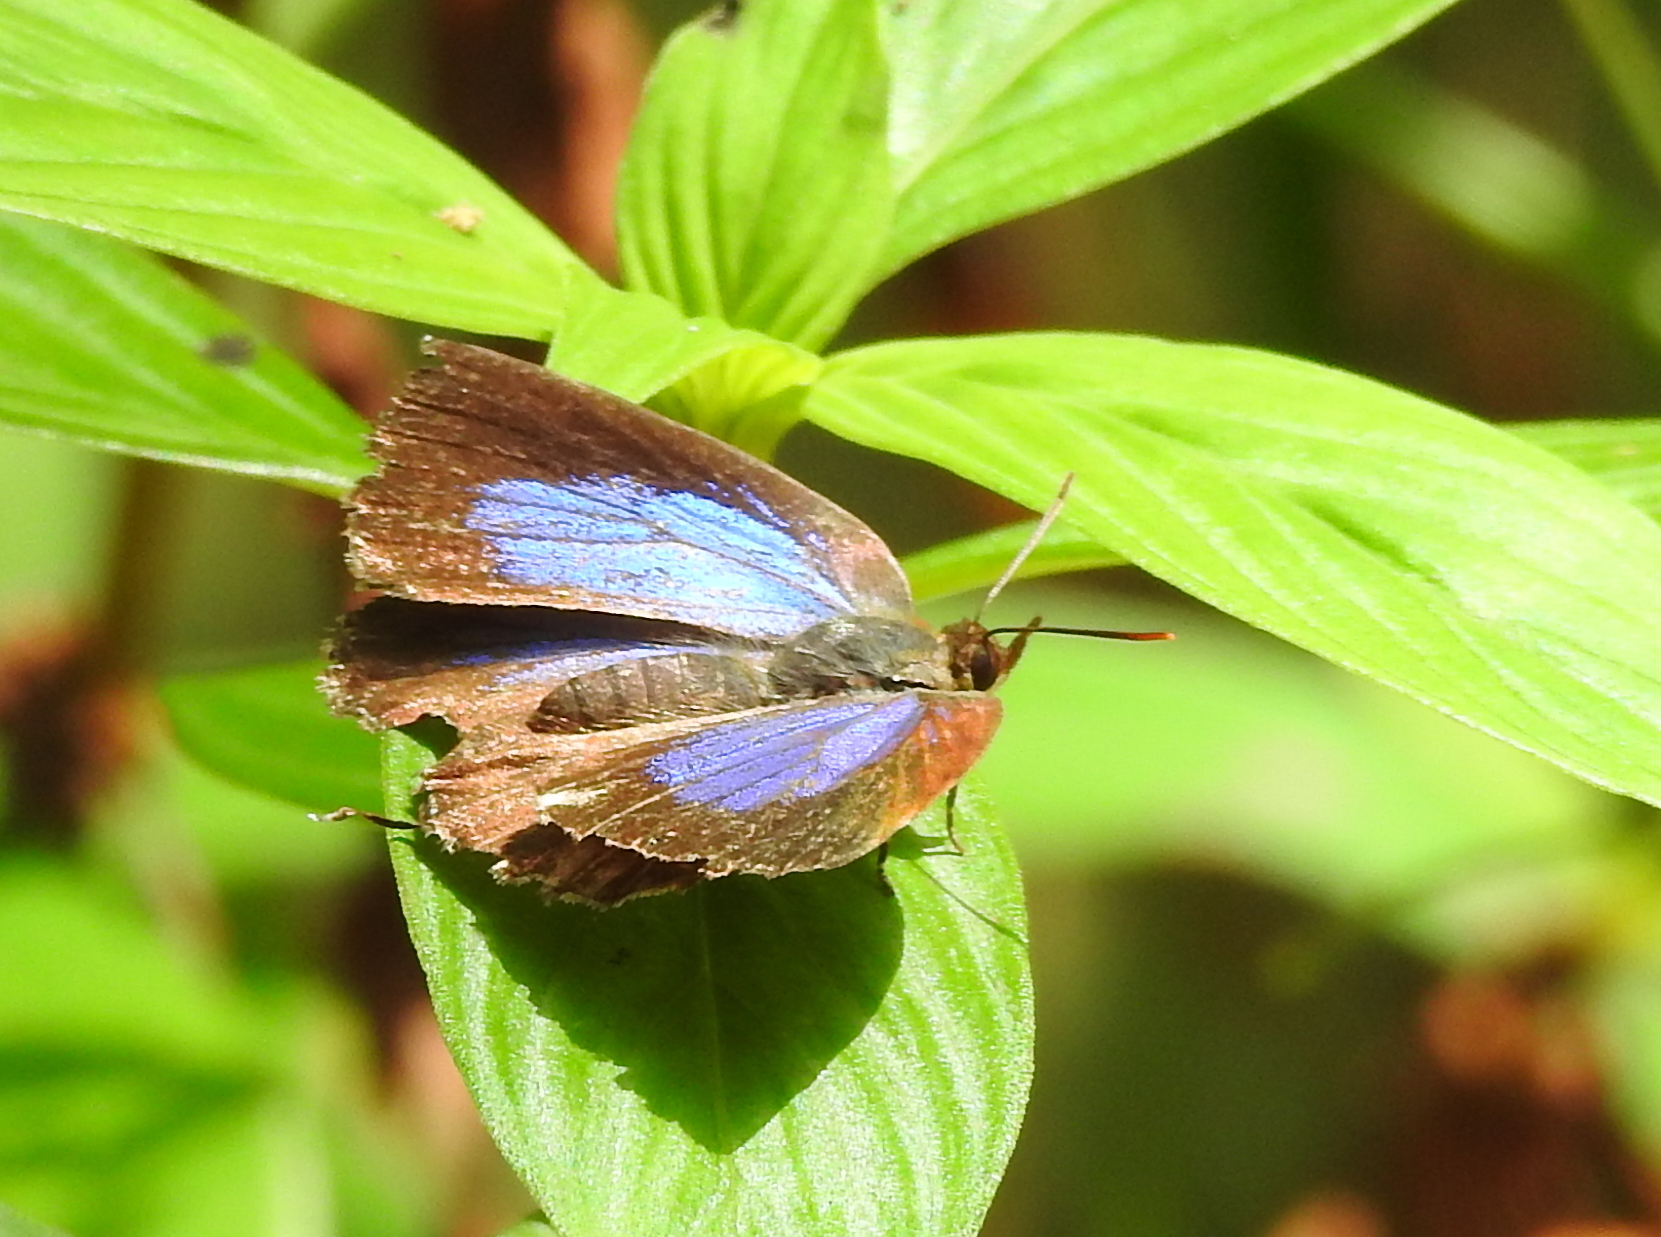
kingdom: Animalia
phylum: Arthropoda
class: Insecta
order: Lepidoptera
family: Lycaenidae
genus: Arhopala
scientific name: Arhopala abseus
